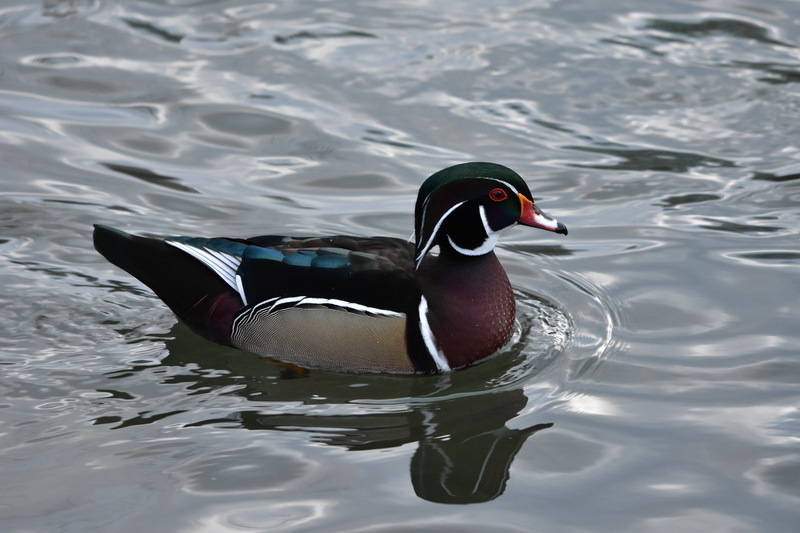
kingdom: Animalia
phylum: Chordata
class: Aves
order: Anseriformes
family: Anatidae
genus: Aix
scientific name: Aix sponsa
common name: Wood duck
